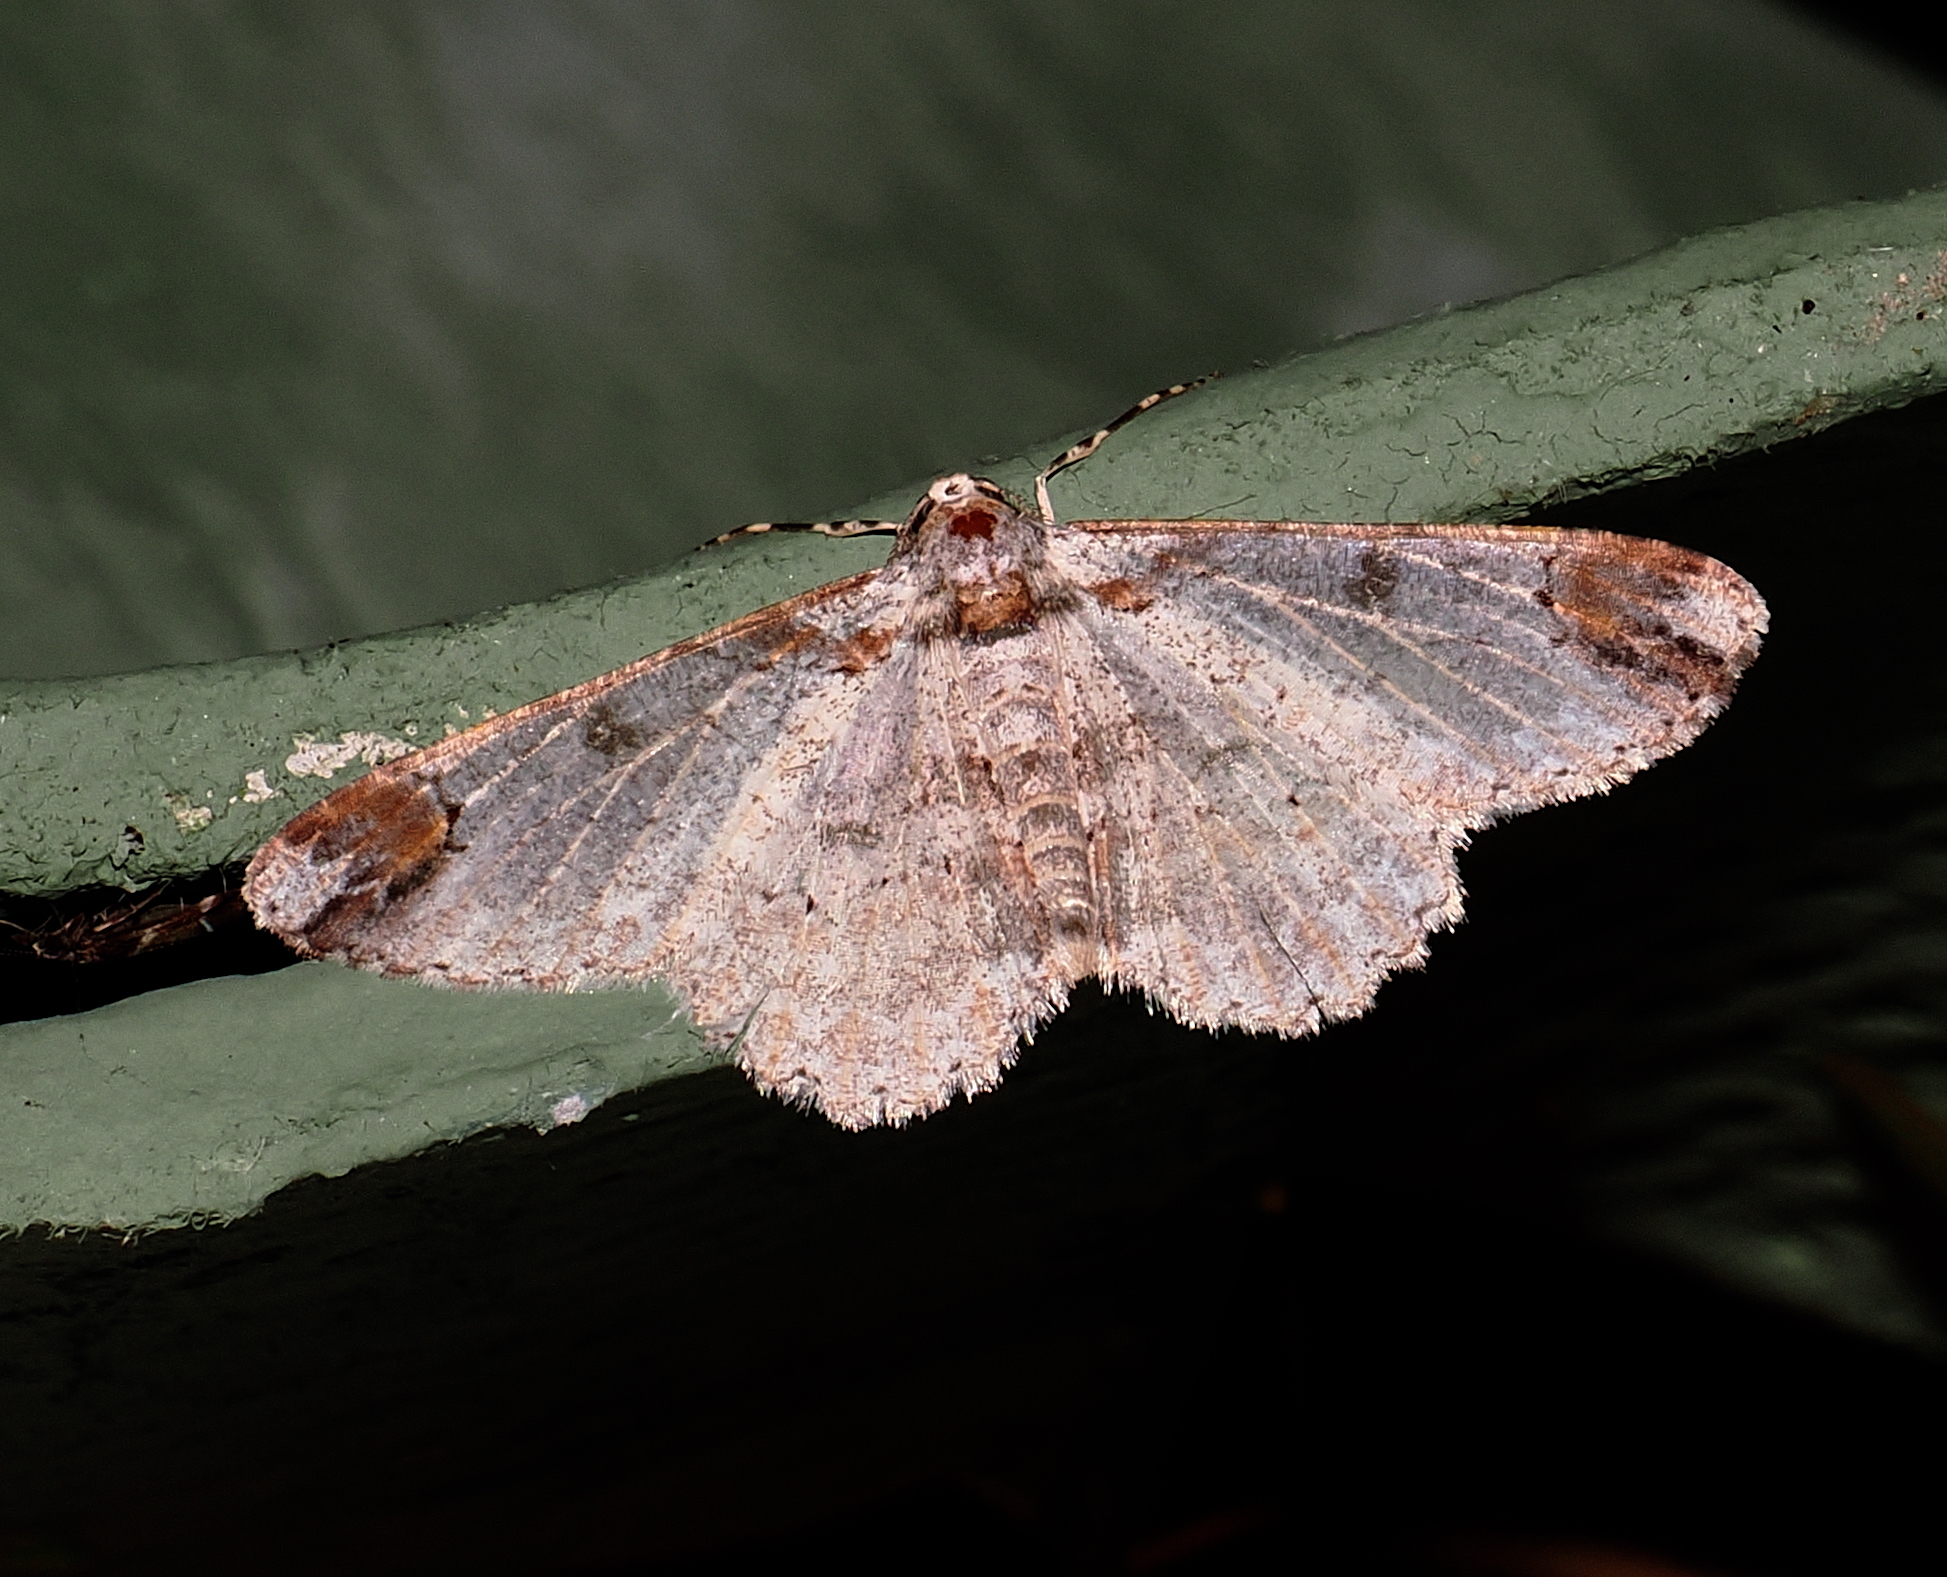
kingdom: Animalia
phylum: Arthropoda
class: Insecta
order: Lepidoptera
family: Geometridae
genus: Iridopsis
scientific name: Iridopsis appetens
